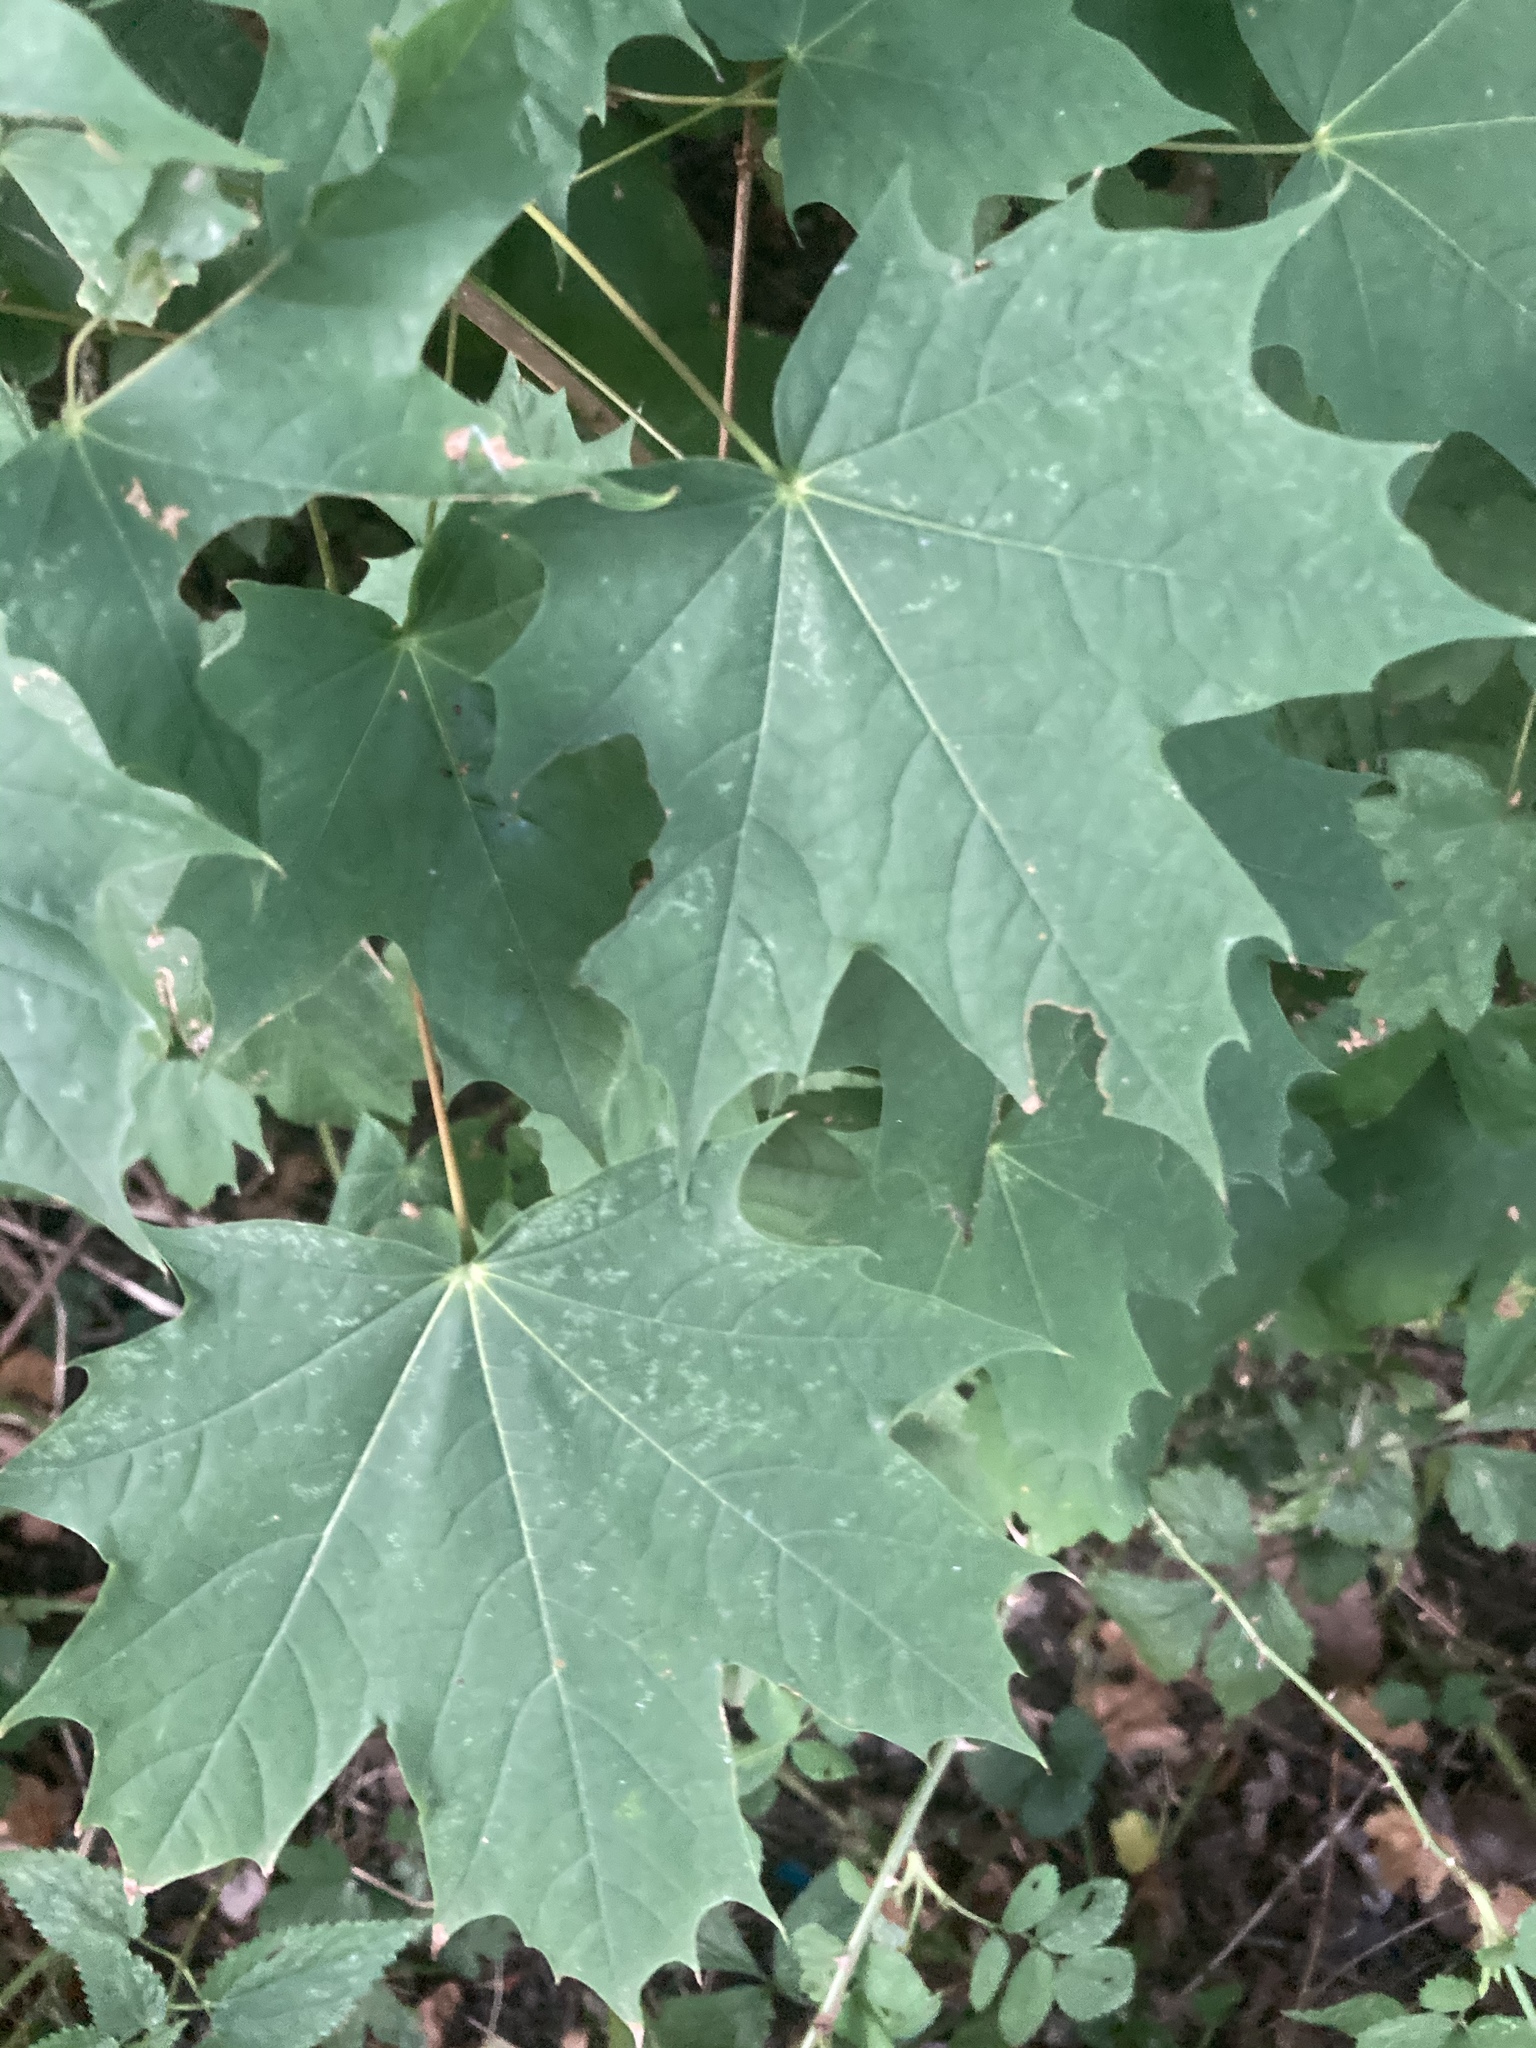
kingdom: Plantae
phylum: Tracheophyta
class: Magnoliopsida
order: Sapindales
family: Sapindaceae
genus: Acer
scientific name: Acer platanoides
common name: Norway maple
